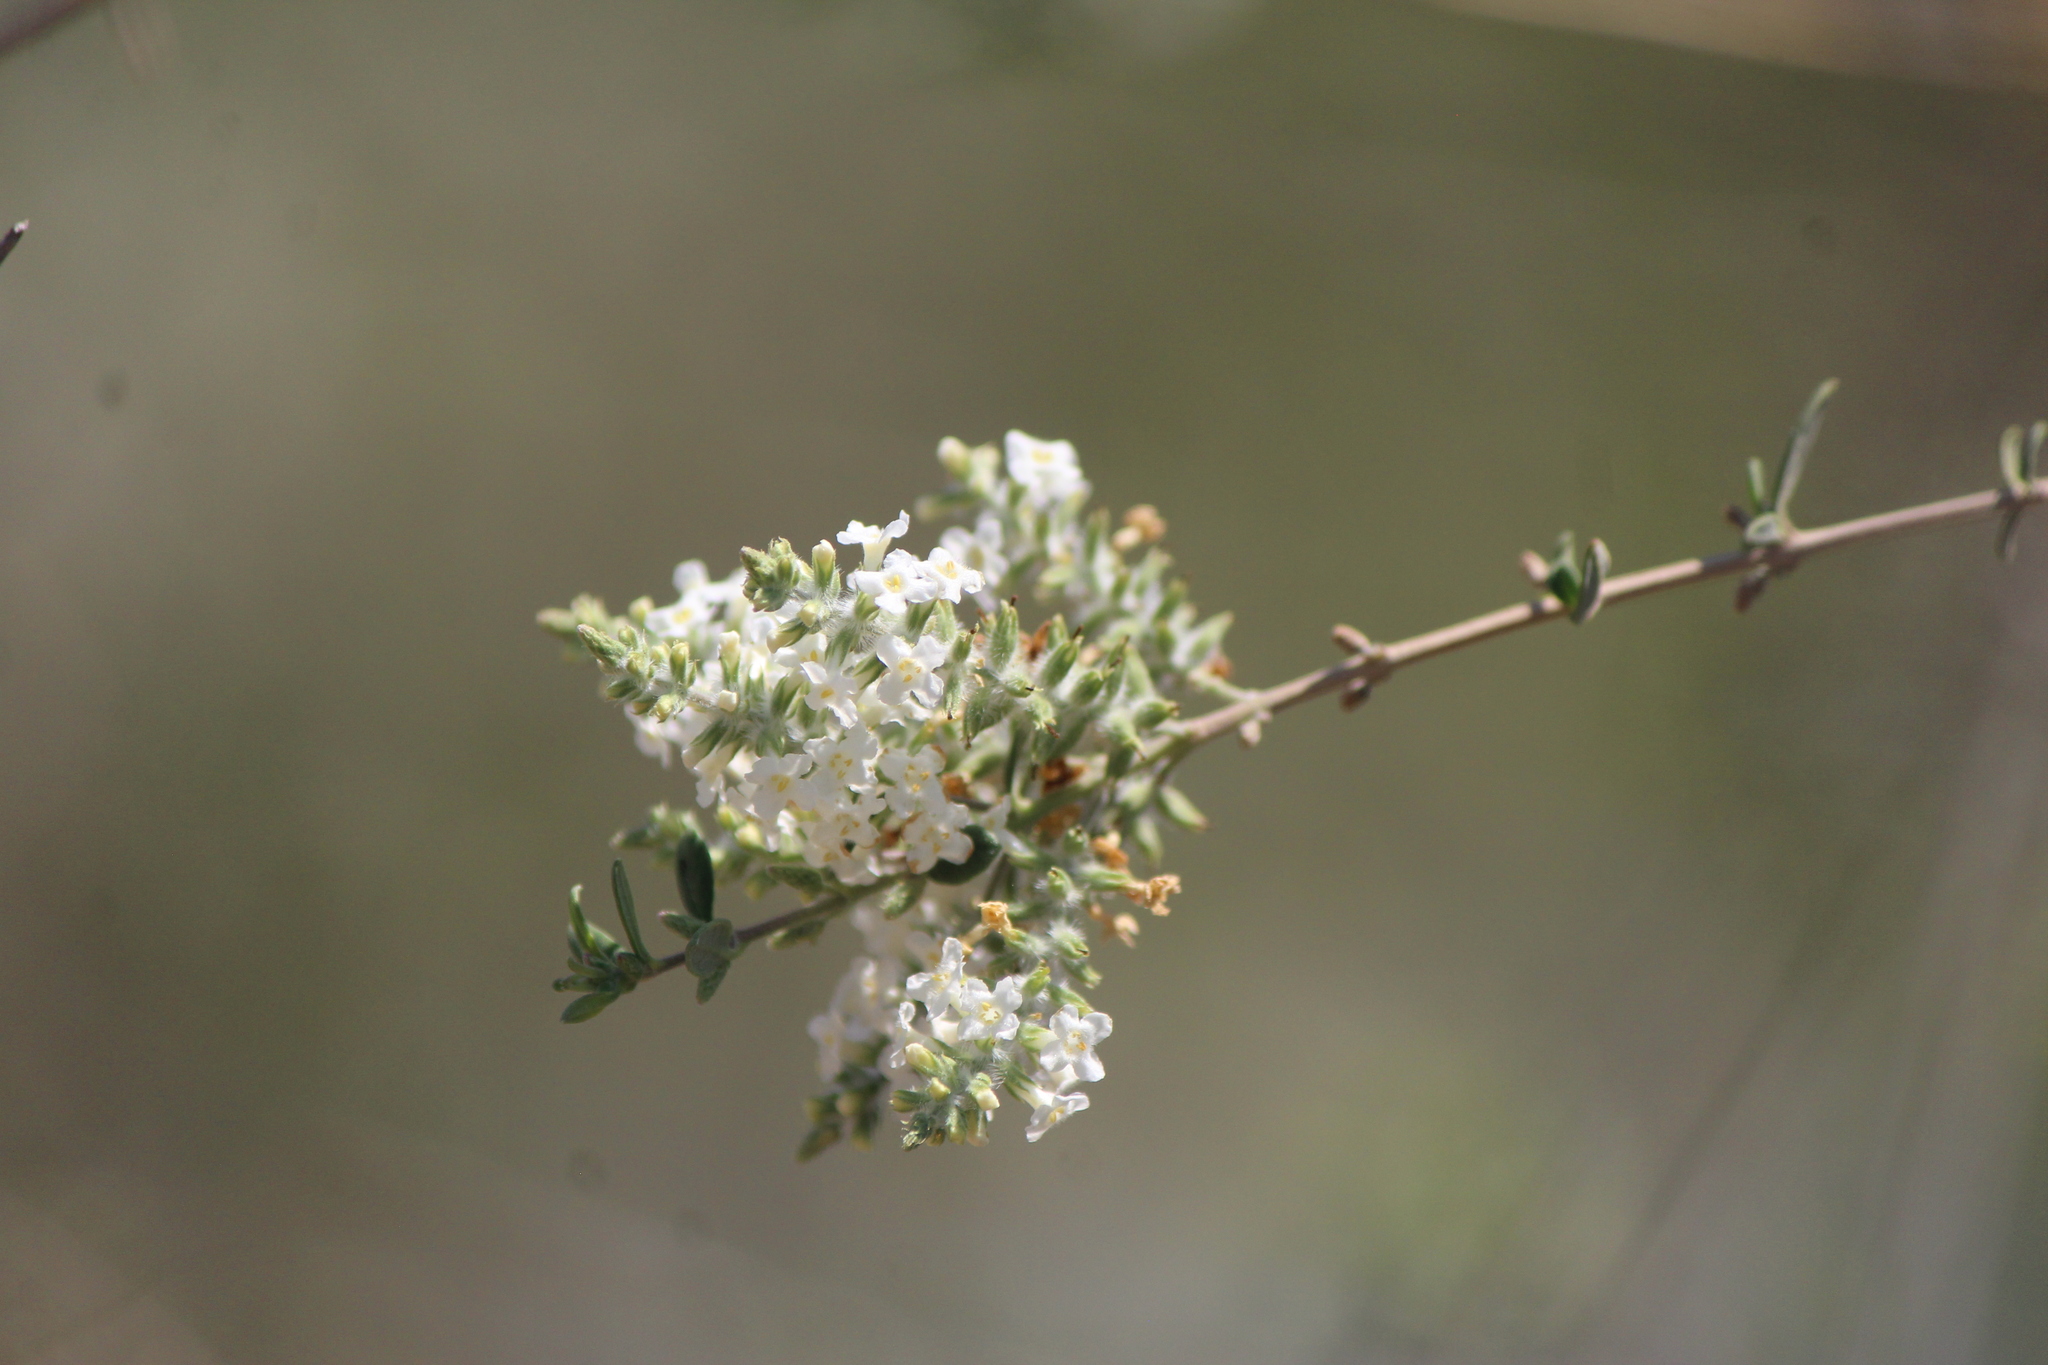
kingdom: Plantae
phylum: Tracheophyta
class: Magnoliopsida
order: Lamiales
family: Verbenaceae
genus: Aloysia
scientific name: Aloysia gratissima
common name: Common bee-brush
